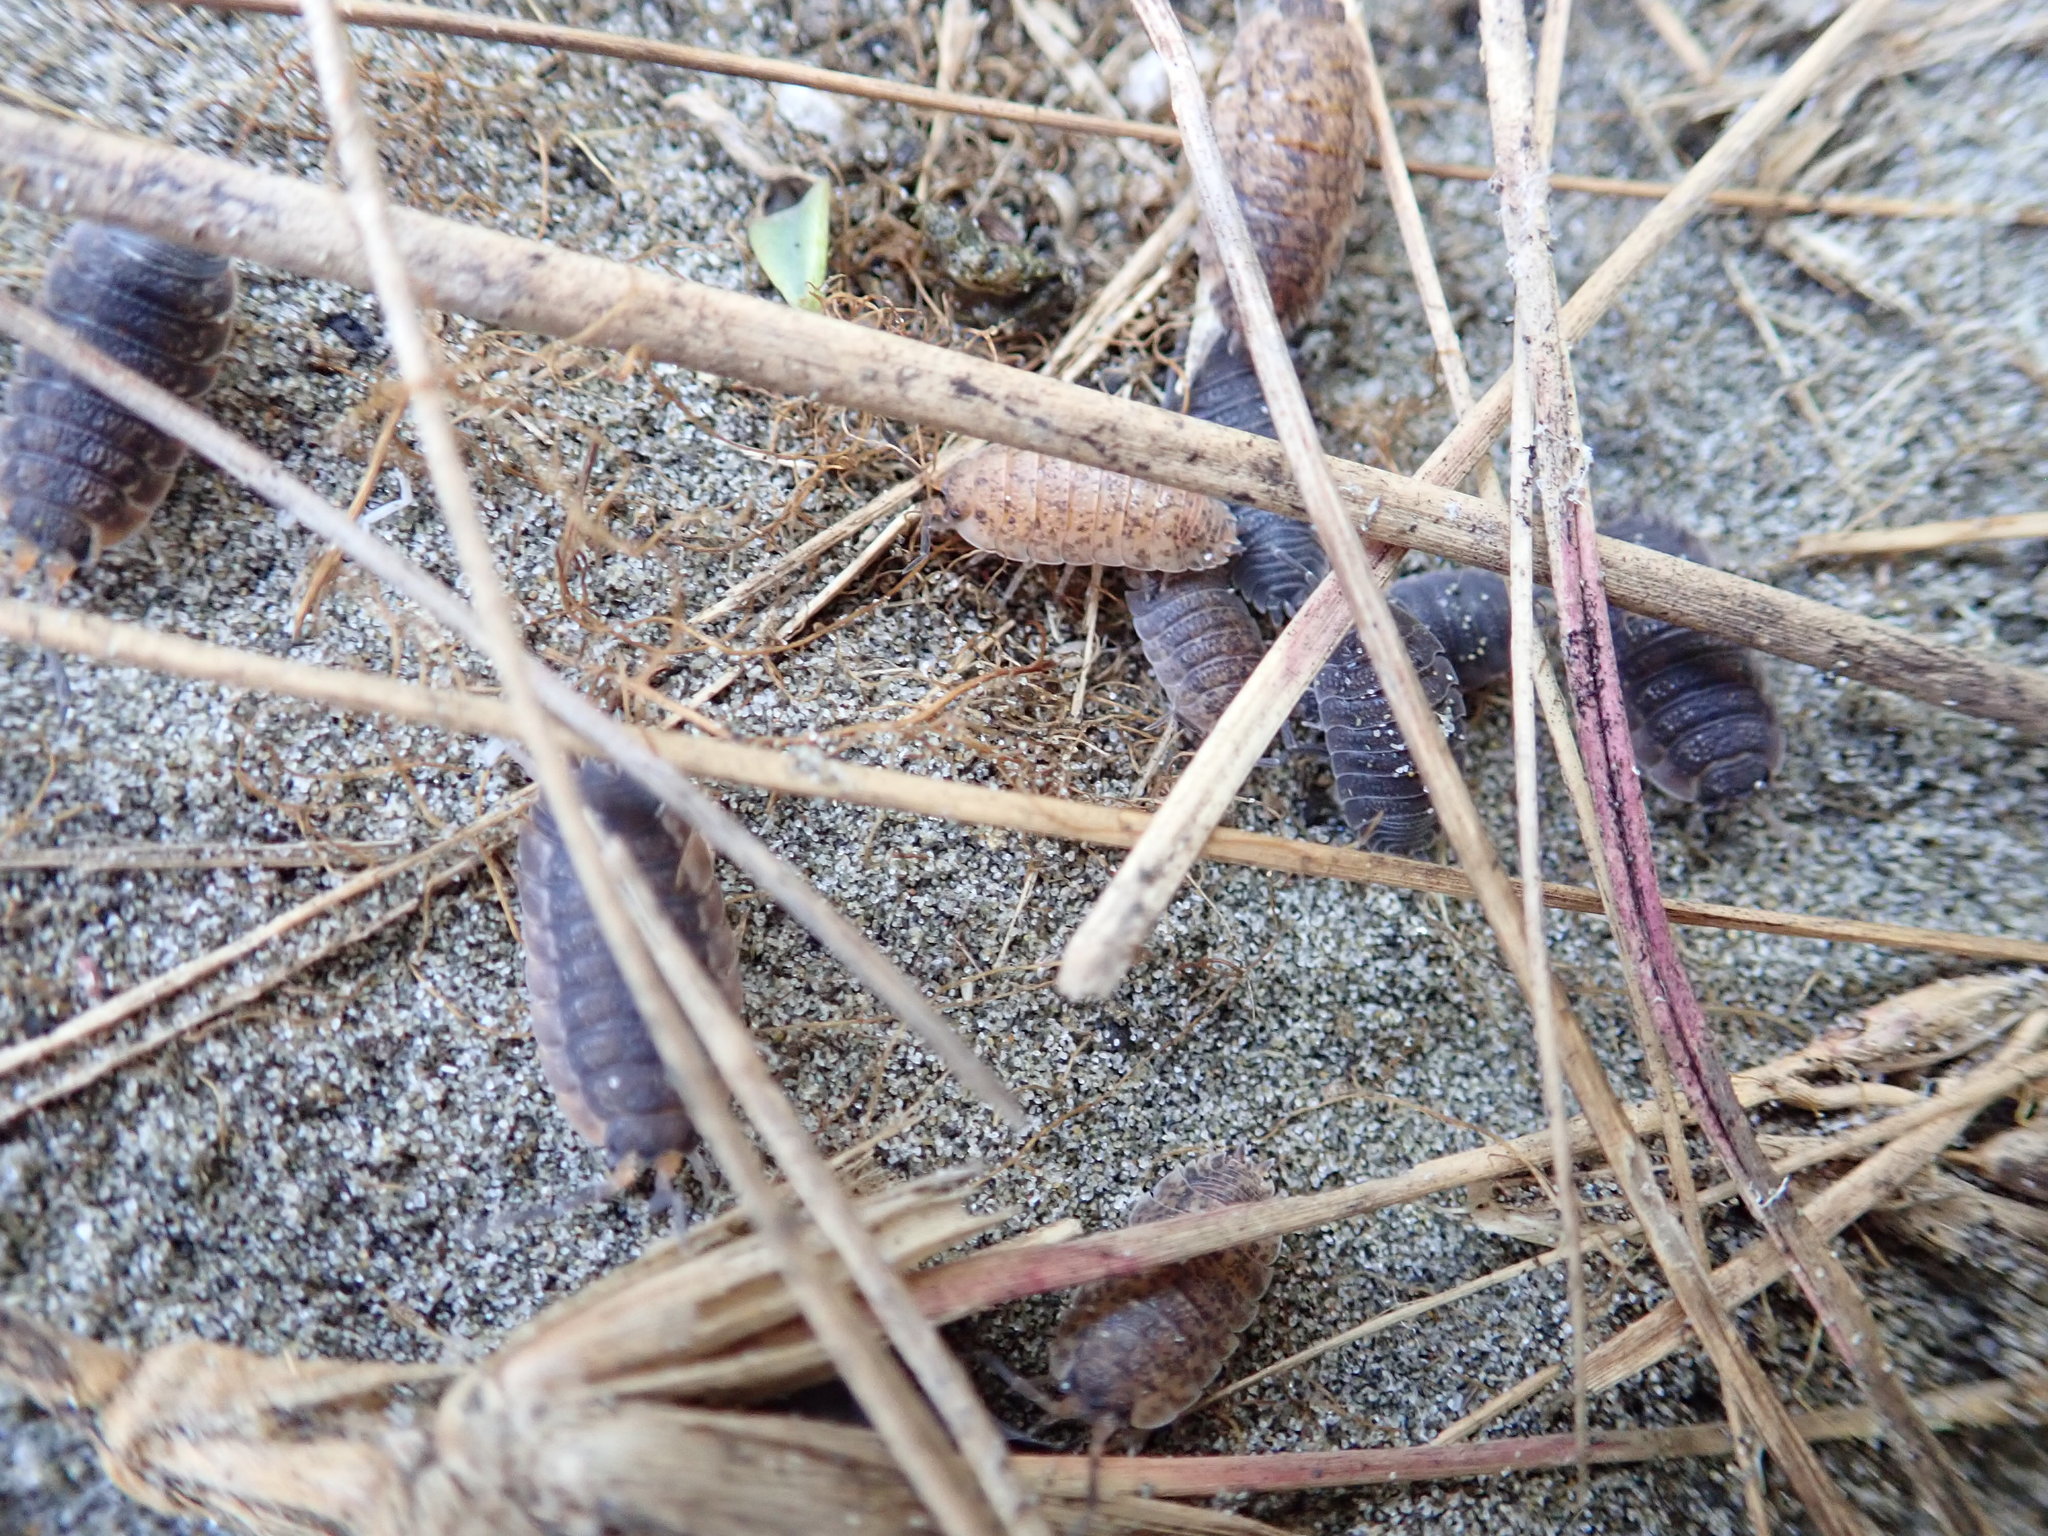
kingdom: Animalia
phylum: Arthropoda
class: Malacostraca
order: Isopoda
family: Porcellionidae
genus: Porcellio
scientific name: Porcellio scaber
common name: Common rough woodlouse
